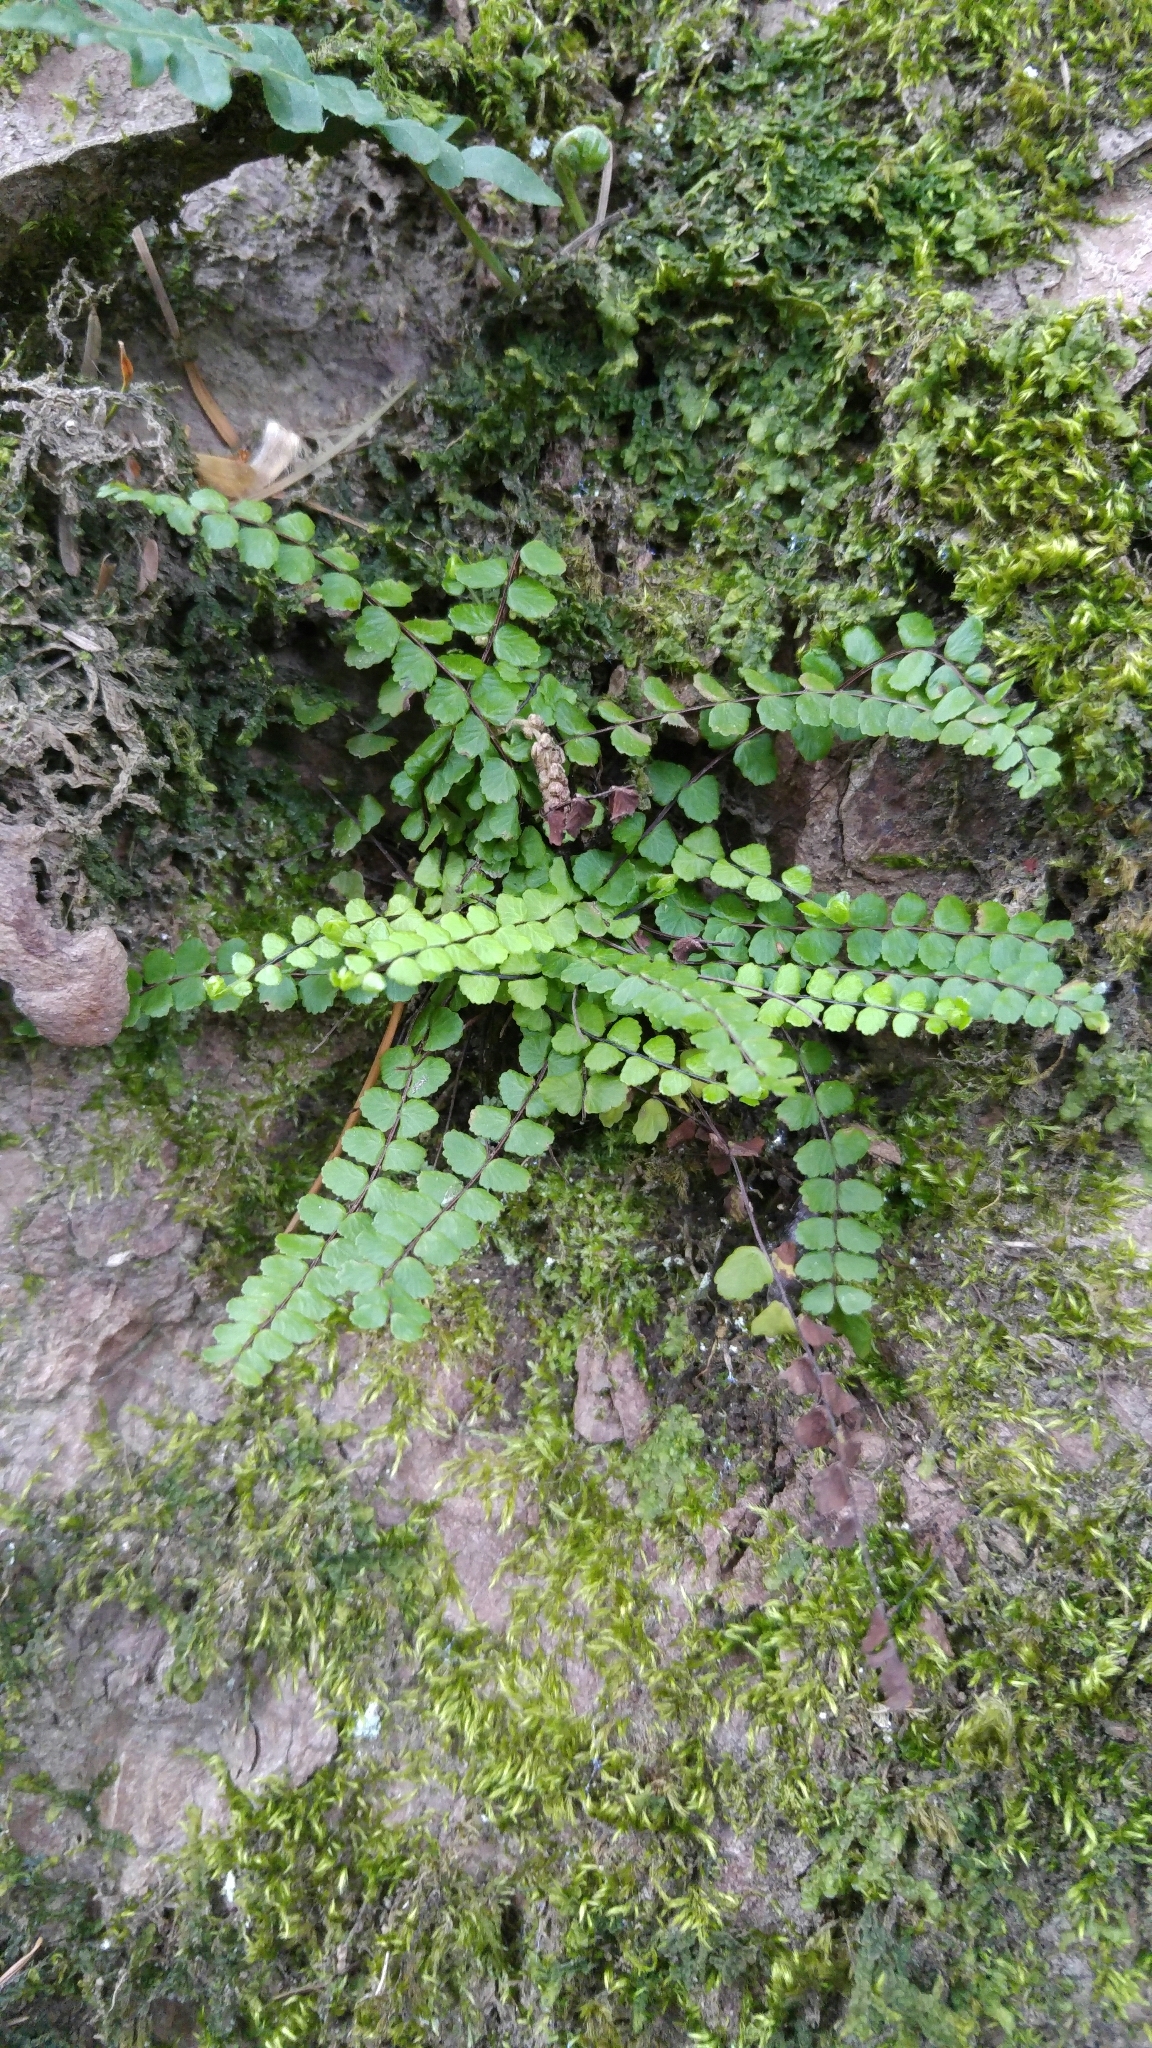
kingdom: Plantae
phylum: Tracheophyta
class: Polypodiopsida
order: Polypodiales
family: Aspleniaceae
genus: Asplenium
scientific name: Asplenium trichomanes
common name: Maidenhair spleenwort
